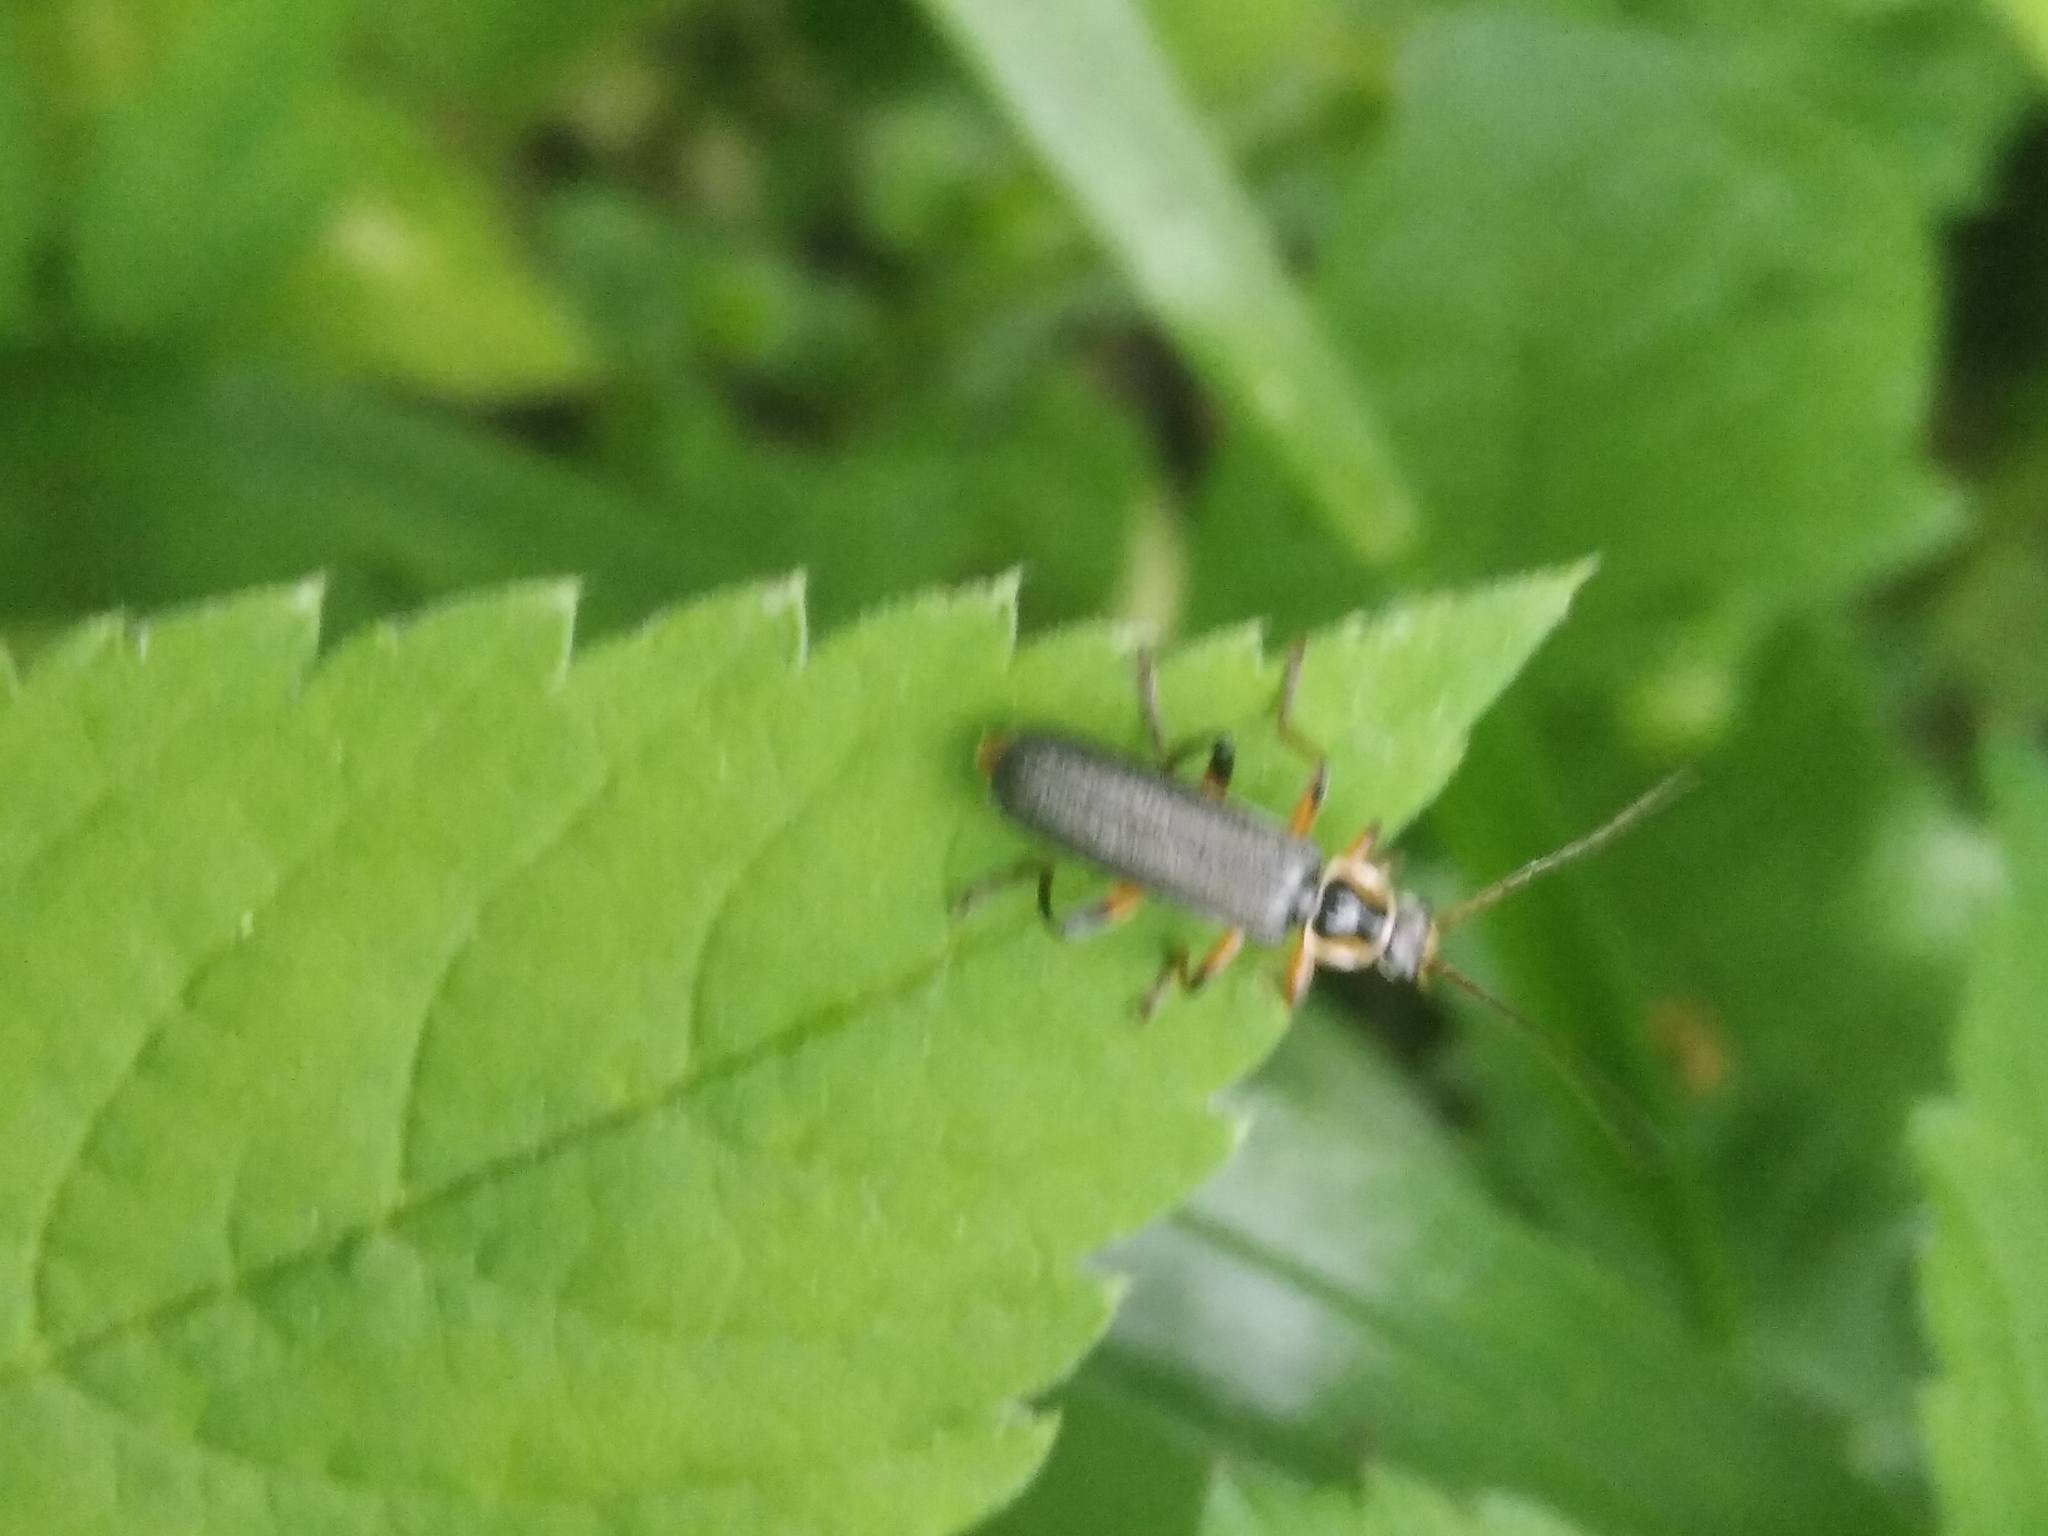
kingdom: Animalia
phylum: Arthropoda
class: Insecta
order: Coleoptera
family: Cantharidae
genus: Cantharis
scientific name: Cantharis nigricans
